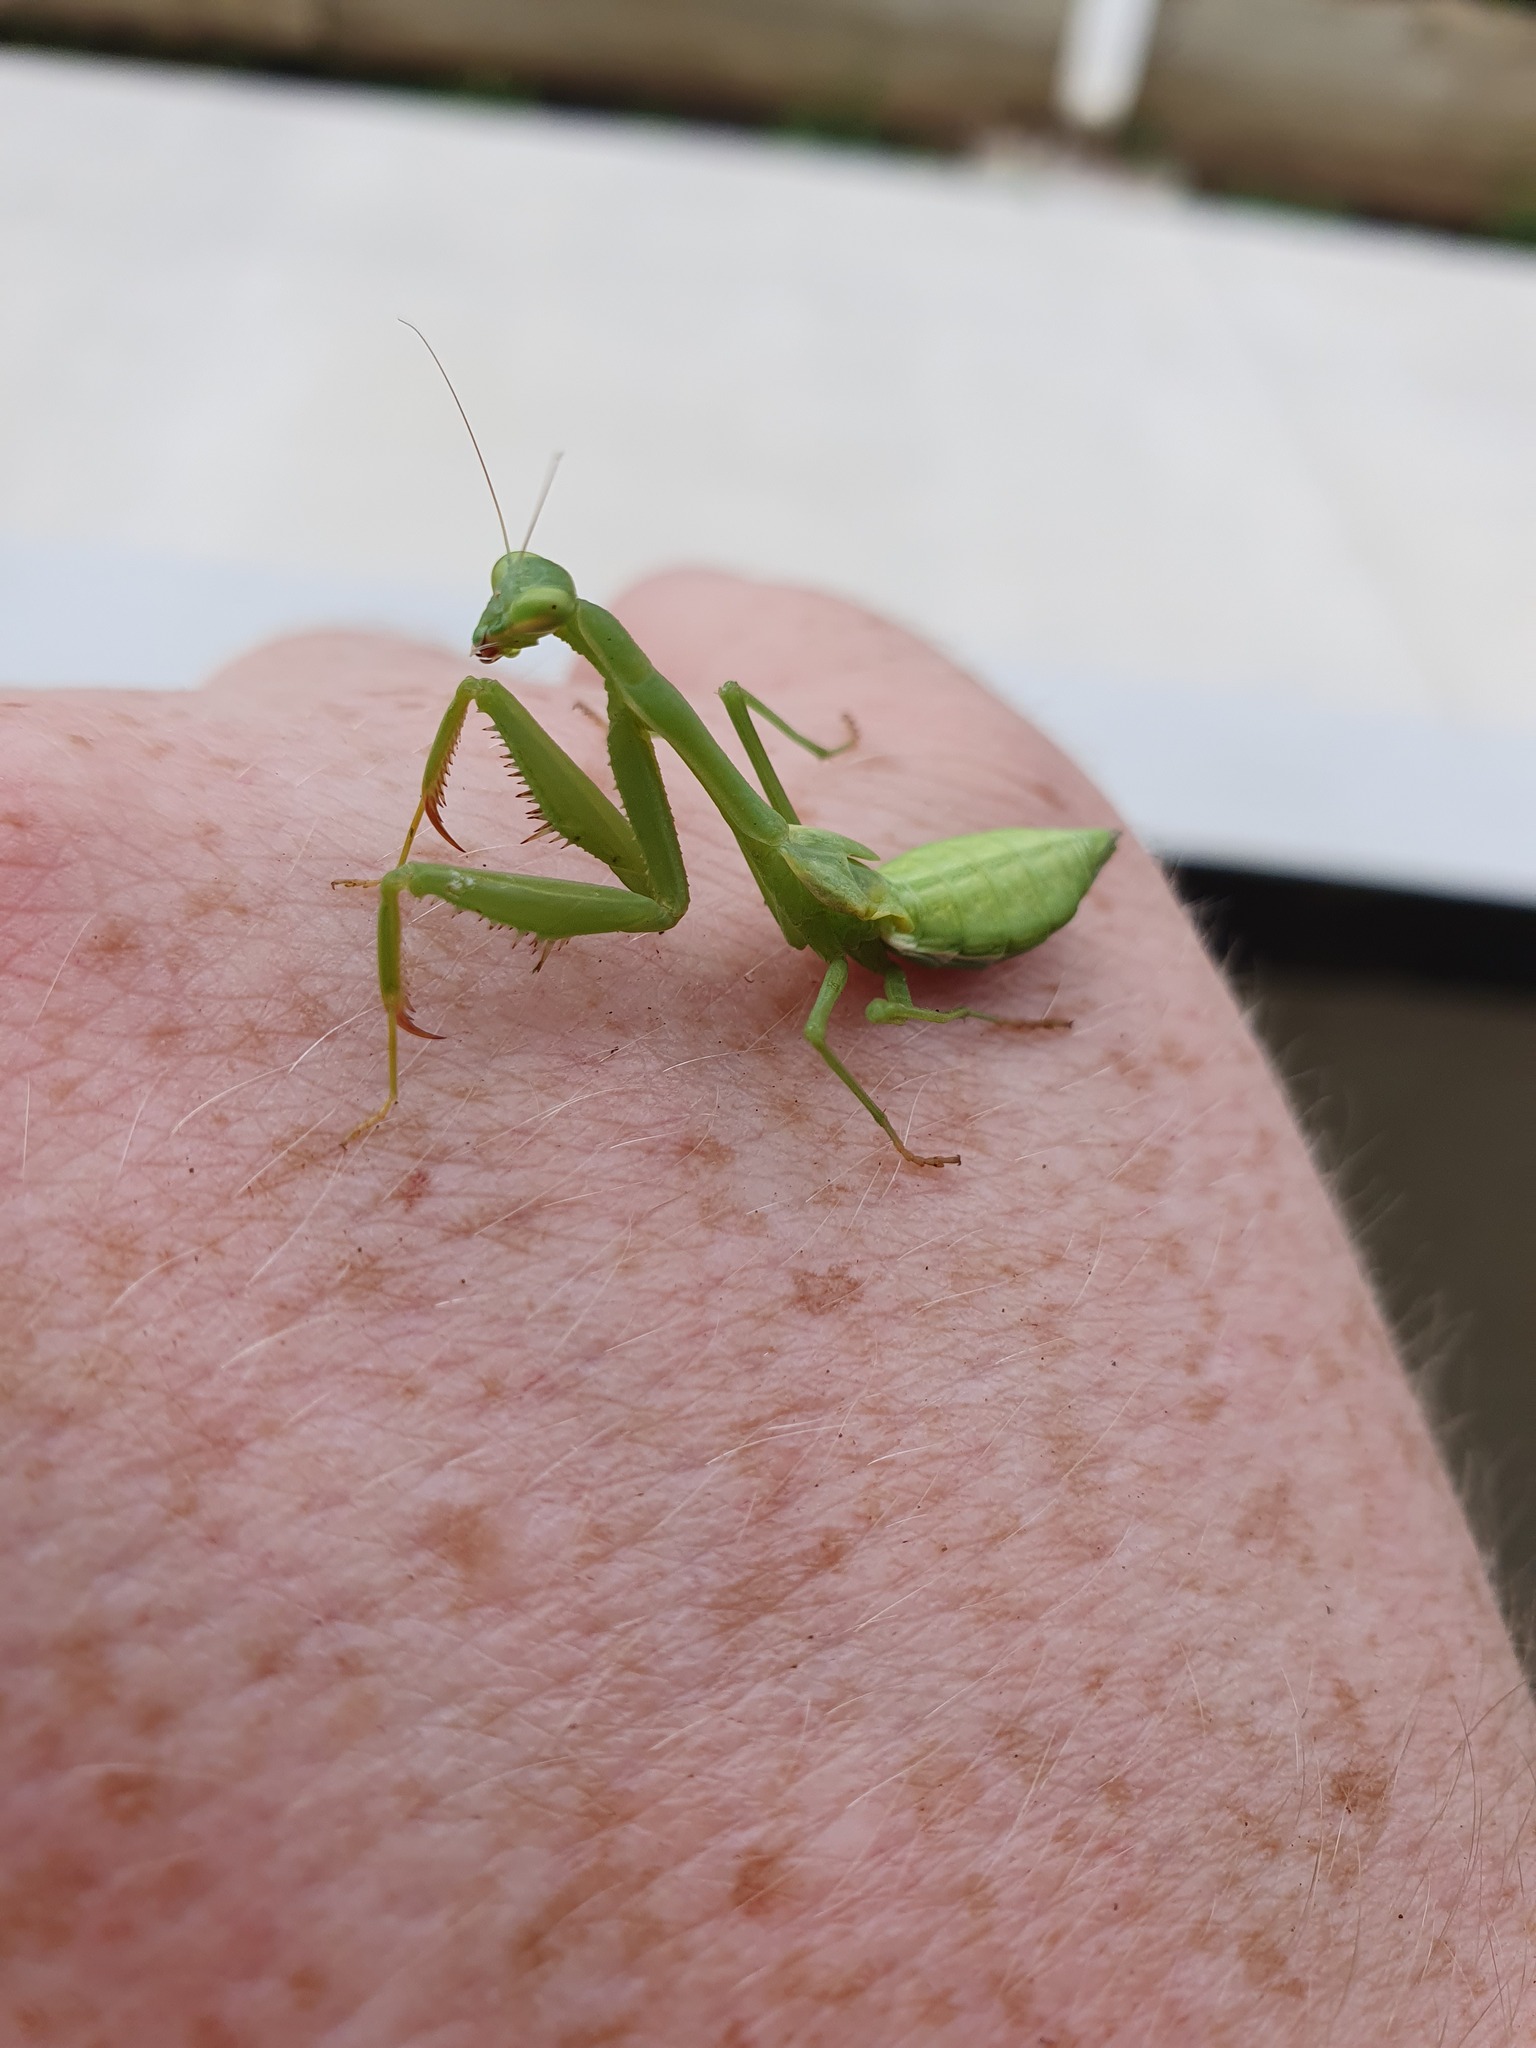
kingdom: Animalia
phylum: Arthropoda
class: Insecta
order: Mantodea
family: Miomantidae
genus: Miomantis
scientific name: Miomantis caffra
